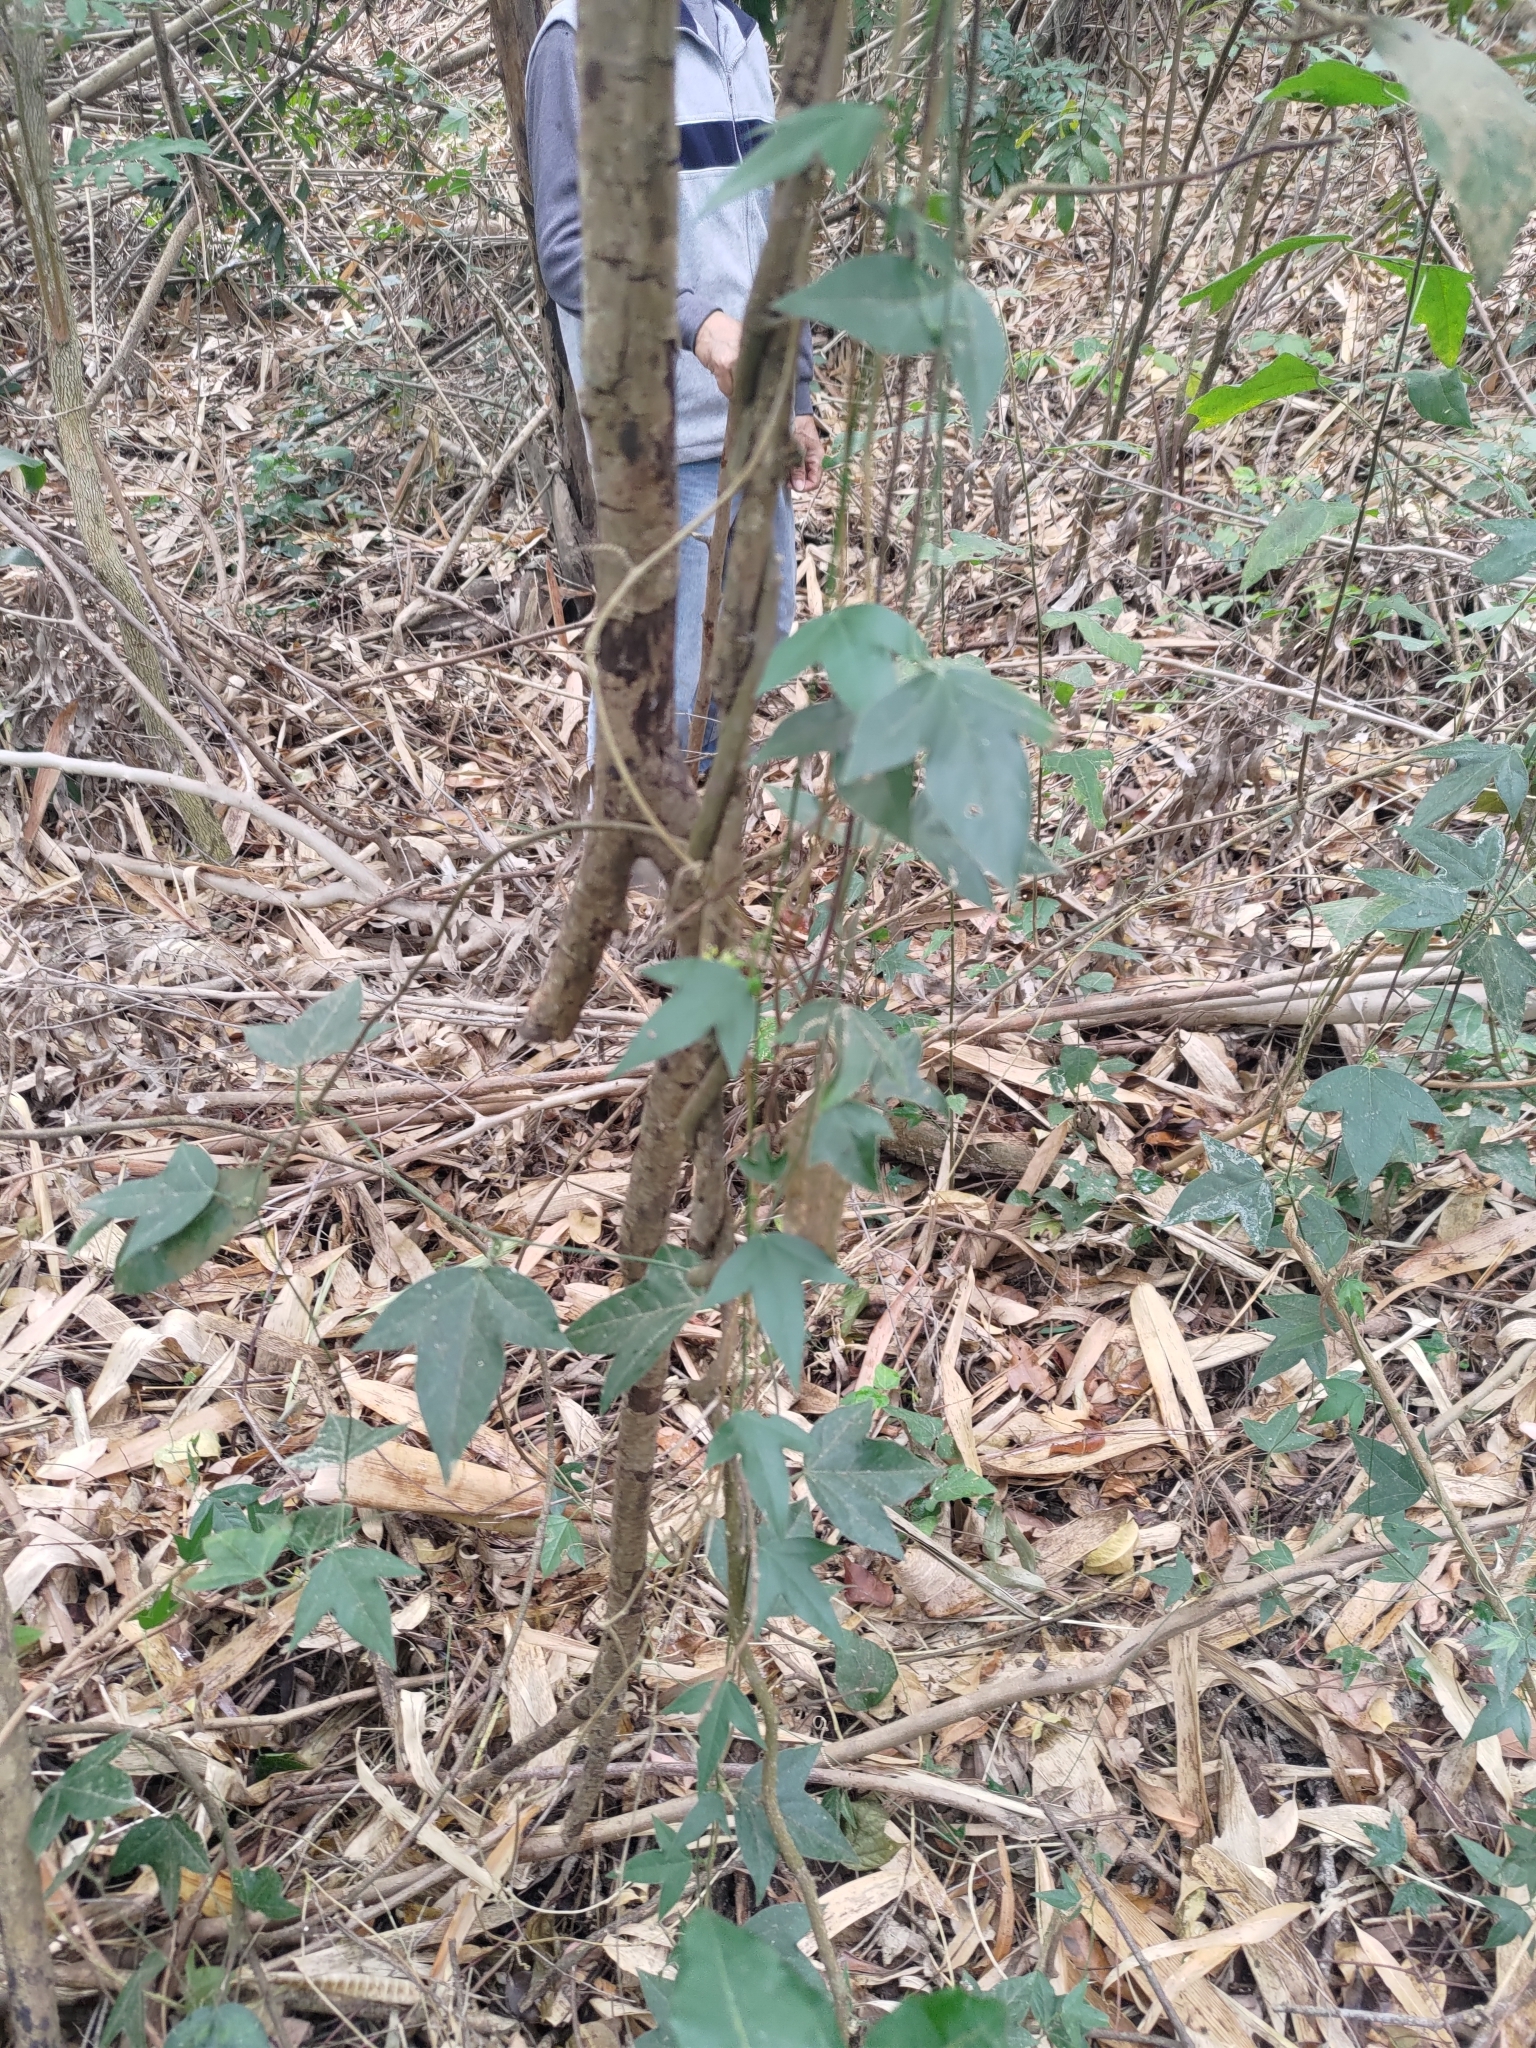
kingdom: Plantae
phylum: Tracheophyta
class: Magnoliopsida
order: Malpighiales
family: Passifloraceae
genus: Passiflora
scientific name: Passiflora suberosa
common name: Wild passionfruit
